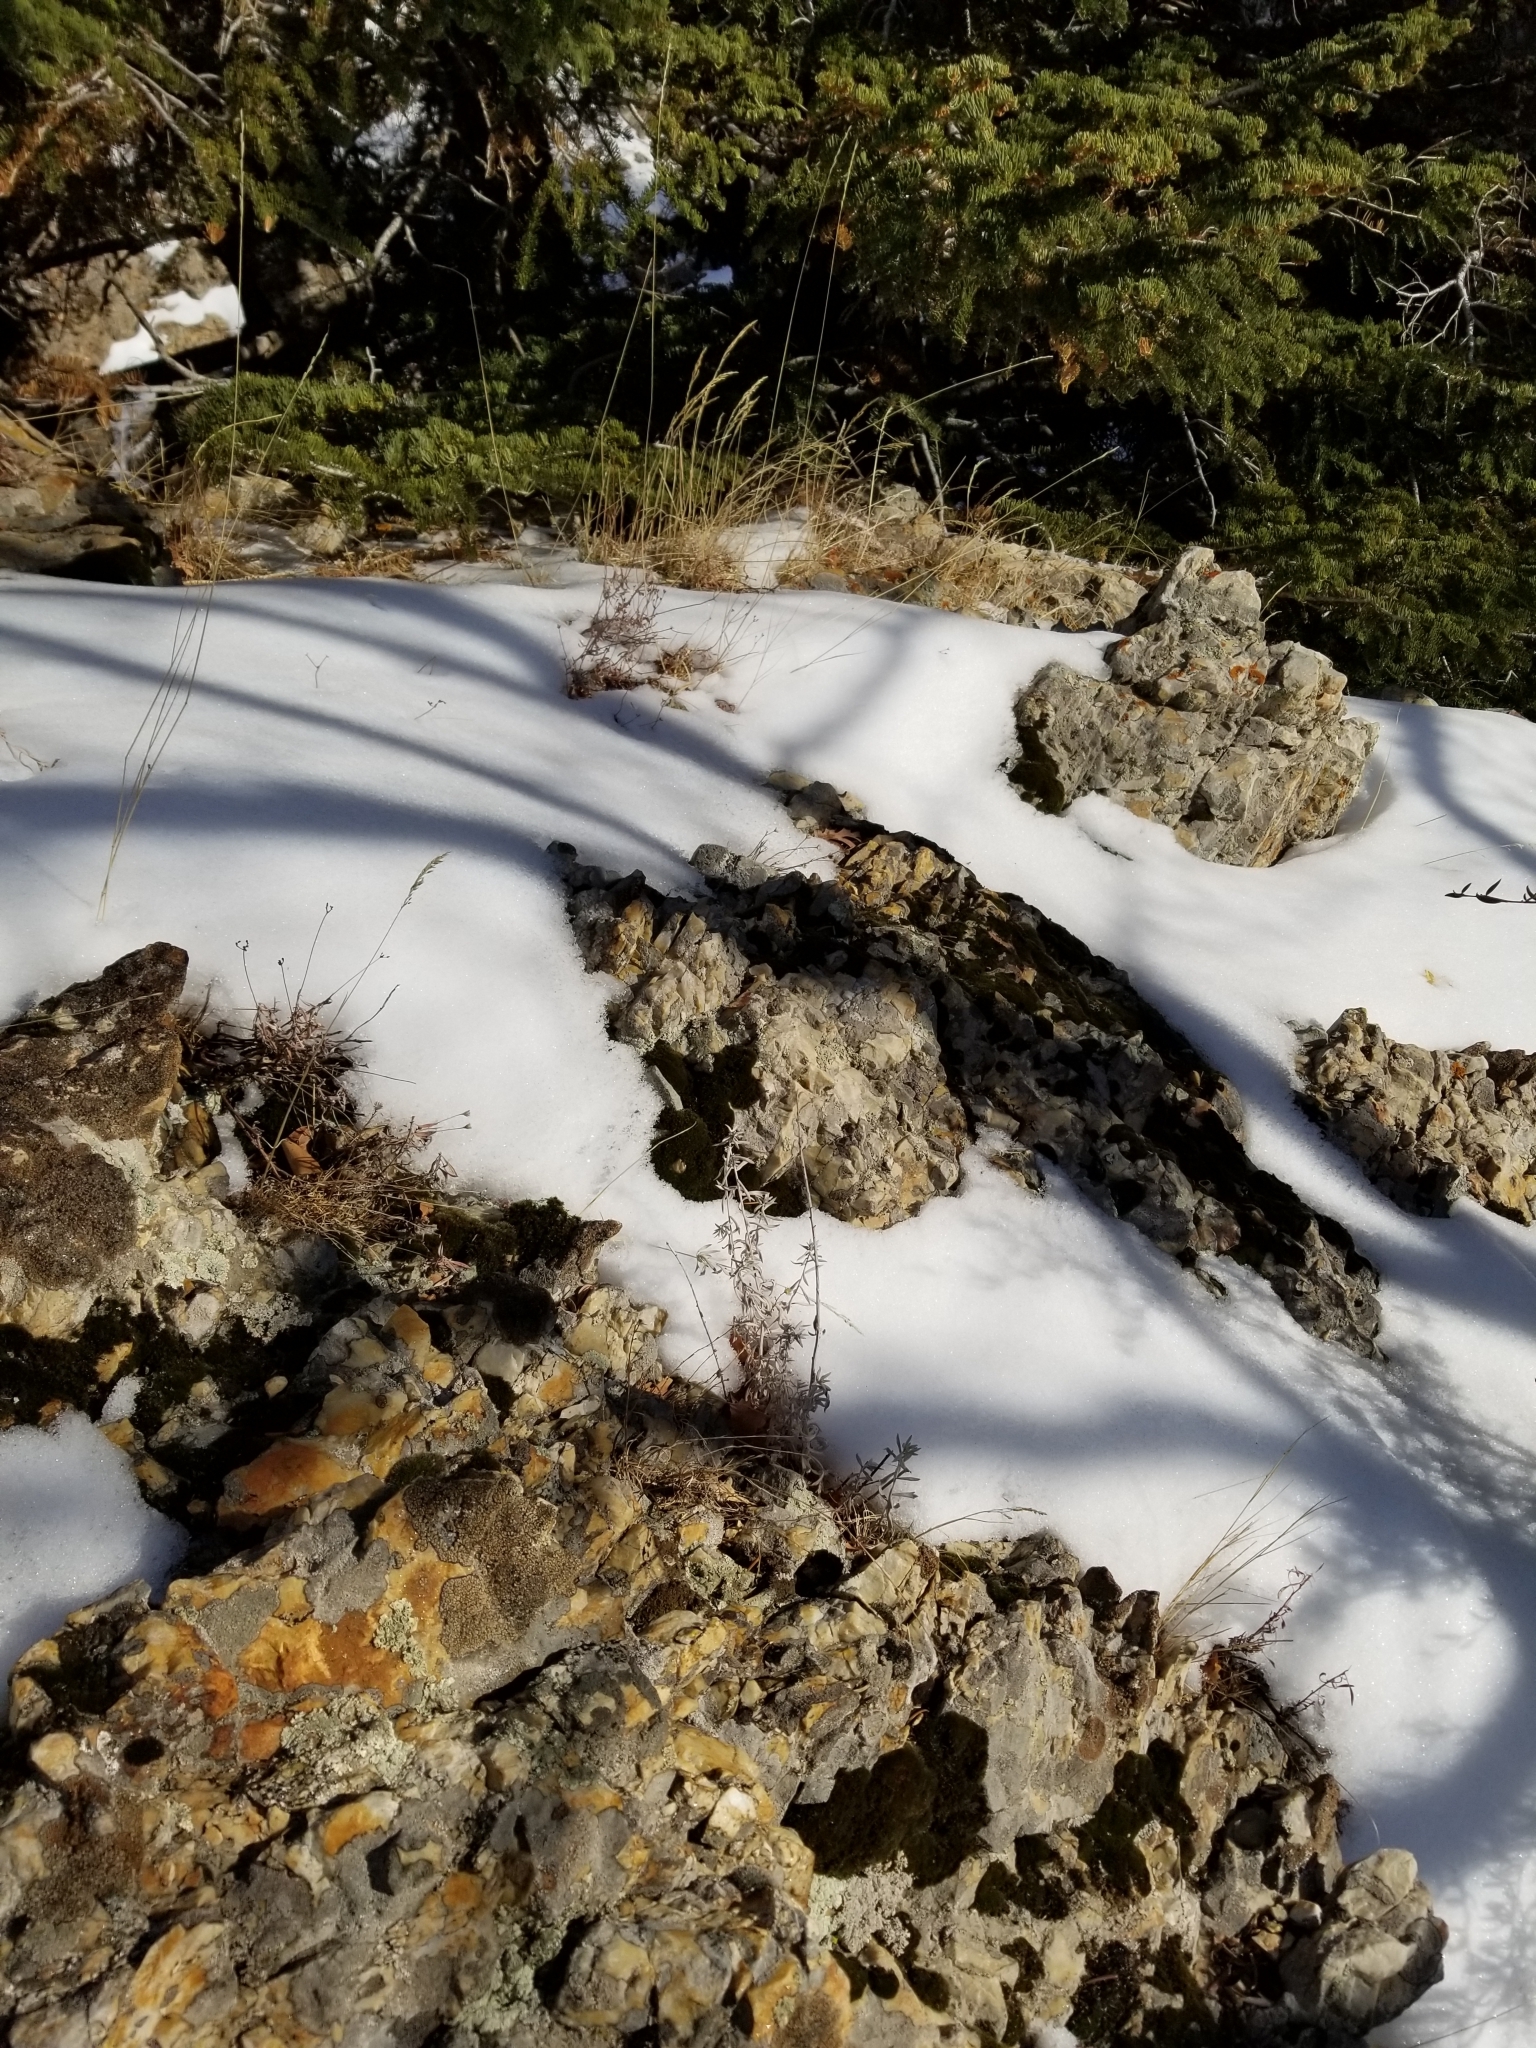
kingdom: Animalia
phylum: Arthropoda
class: Insecta
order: Mecoptera
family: Boreidae
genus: Boreus
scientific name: Boreus coloradensis
